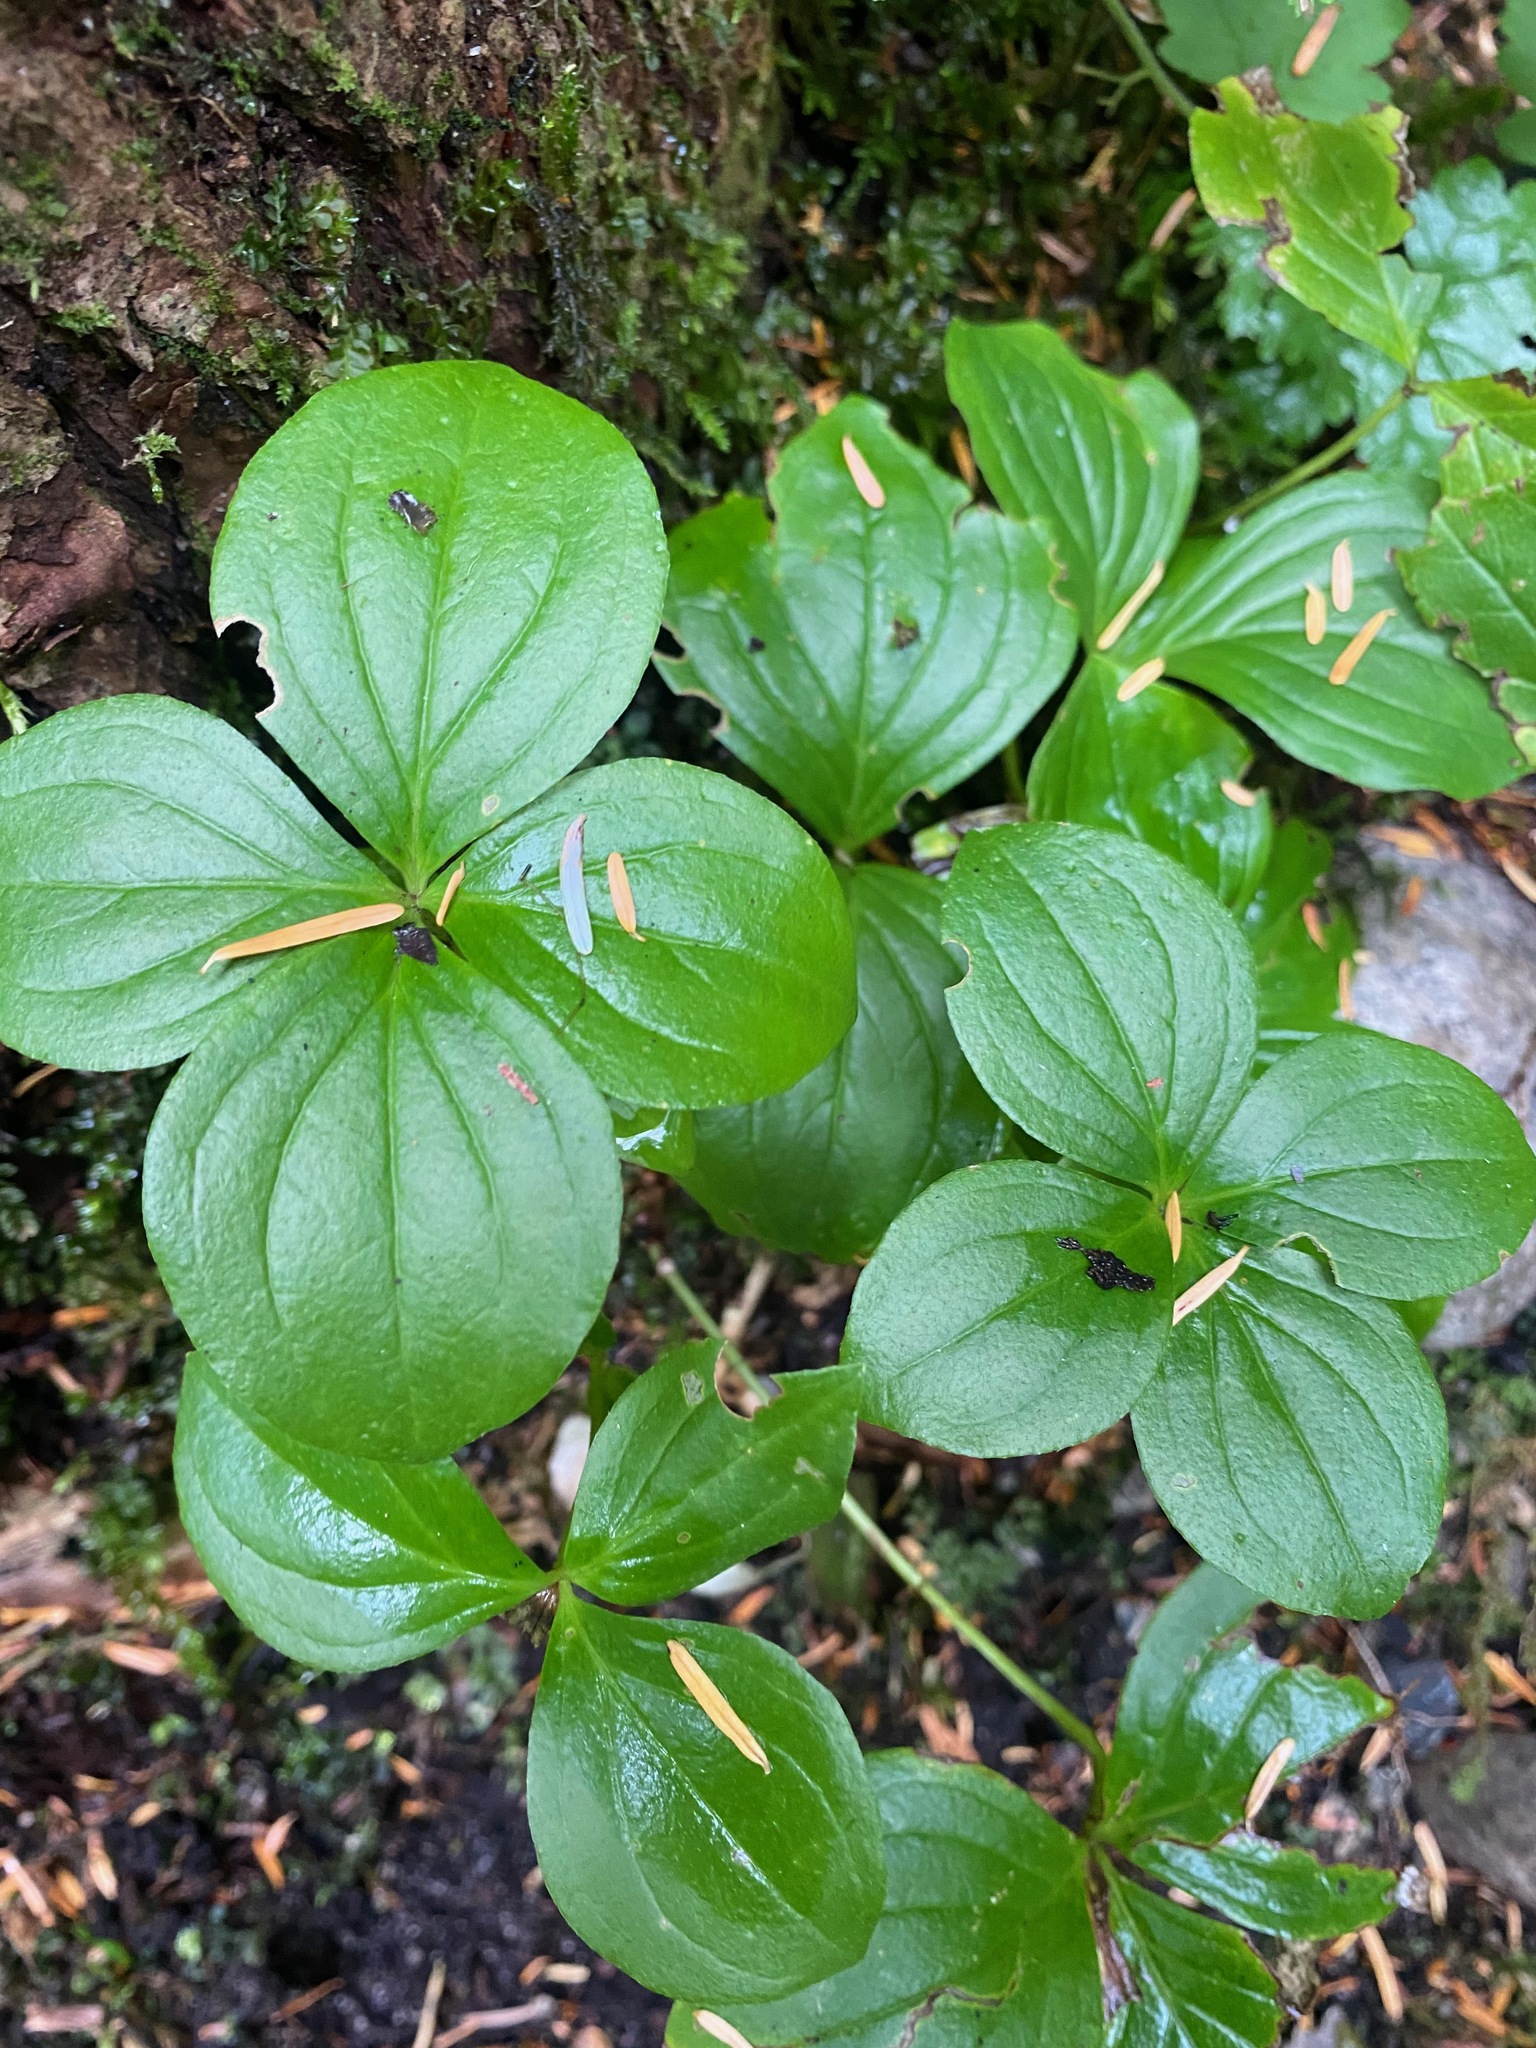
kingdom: Plantae
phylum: Tracheophyta
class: Magnoliopsida
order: Cornales
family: Cornaceae
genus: Cornus
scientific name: Cornus unalaschkensis
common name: Alaska bunchberry
